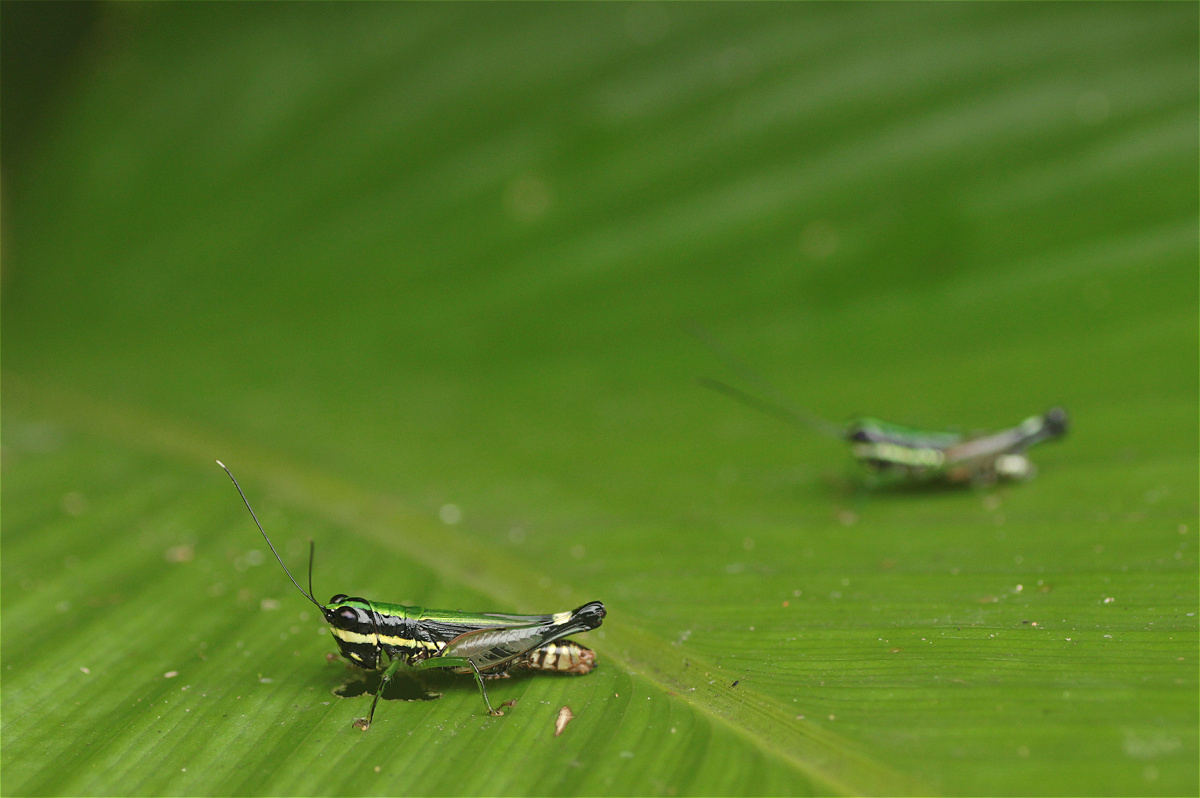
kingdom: Animalia
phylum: Arthropoda
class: Insecta
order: Orthoptera
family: Acrididae
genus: Nadiacris
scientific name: Nadiacris metallica
